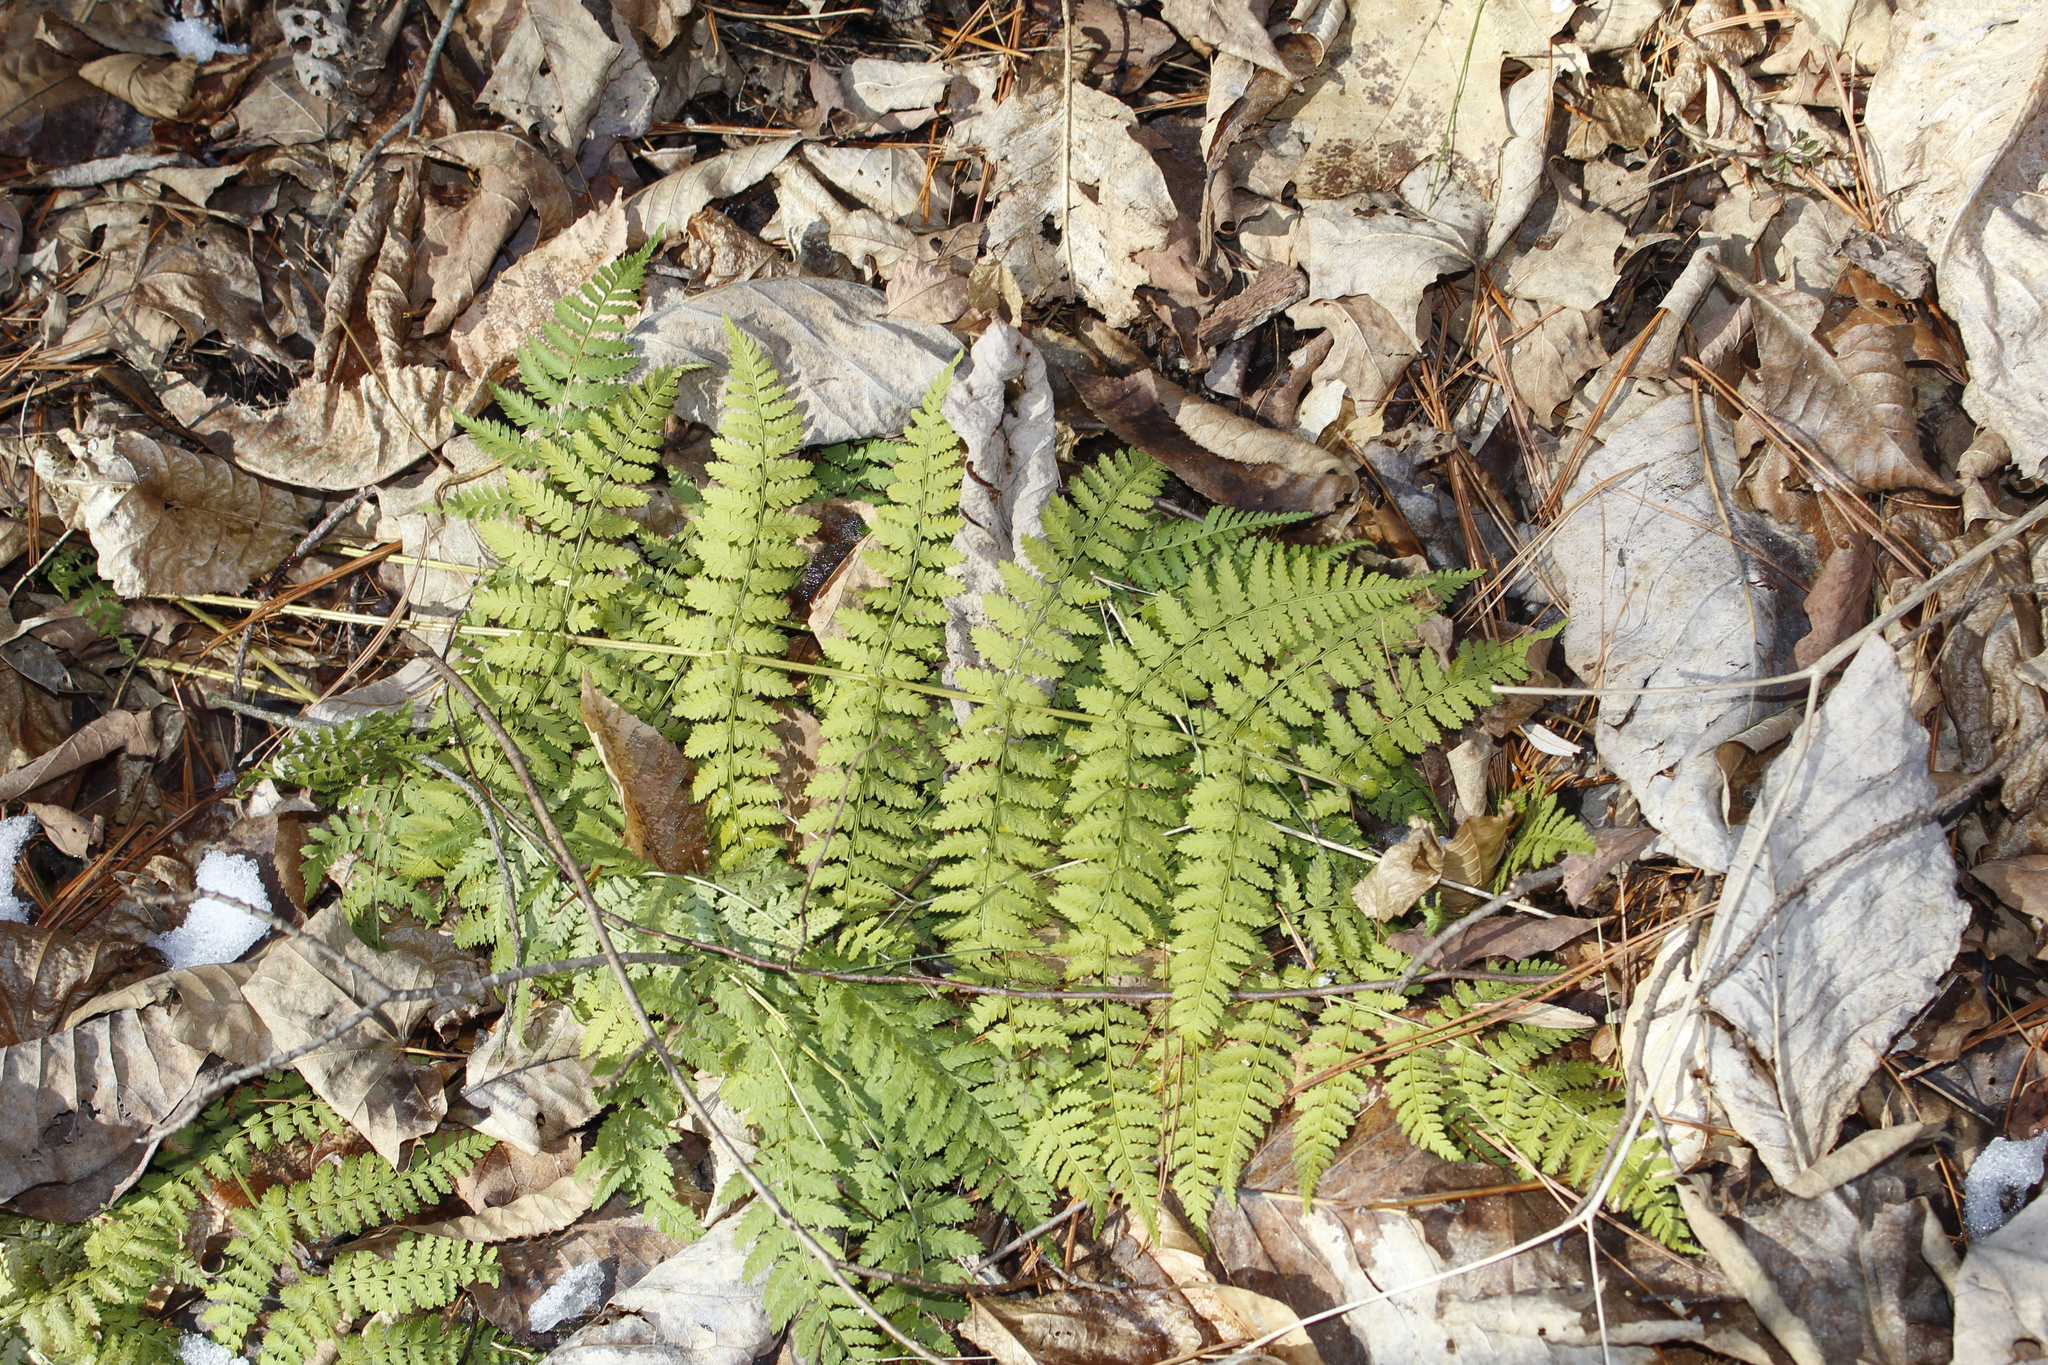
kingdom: Plantae
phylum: Tracheophyta
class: Polypodiopsida
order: Polypodiales
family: Dryopteridaceae
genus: Dryopteris
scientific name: Dryopteris intermedia
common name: Evergreen wood fern
